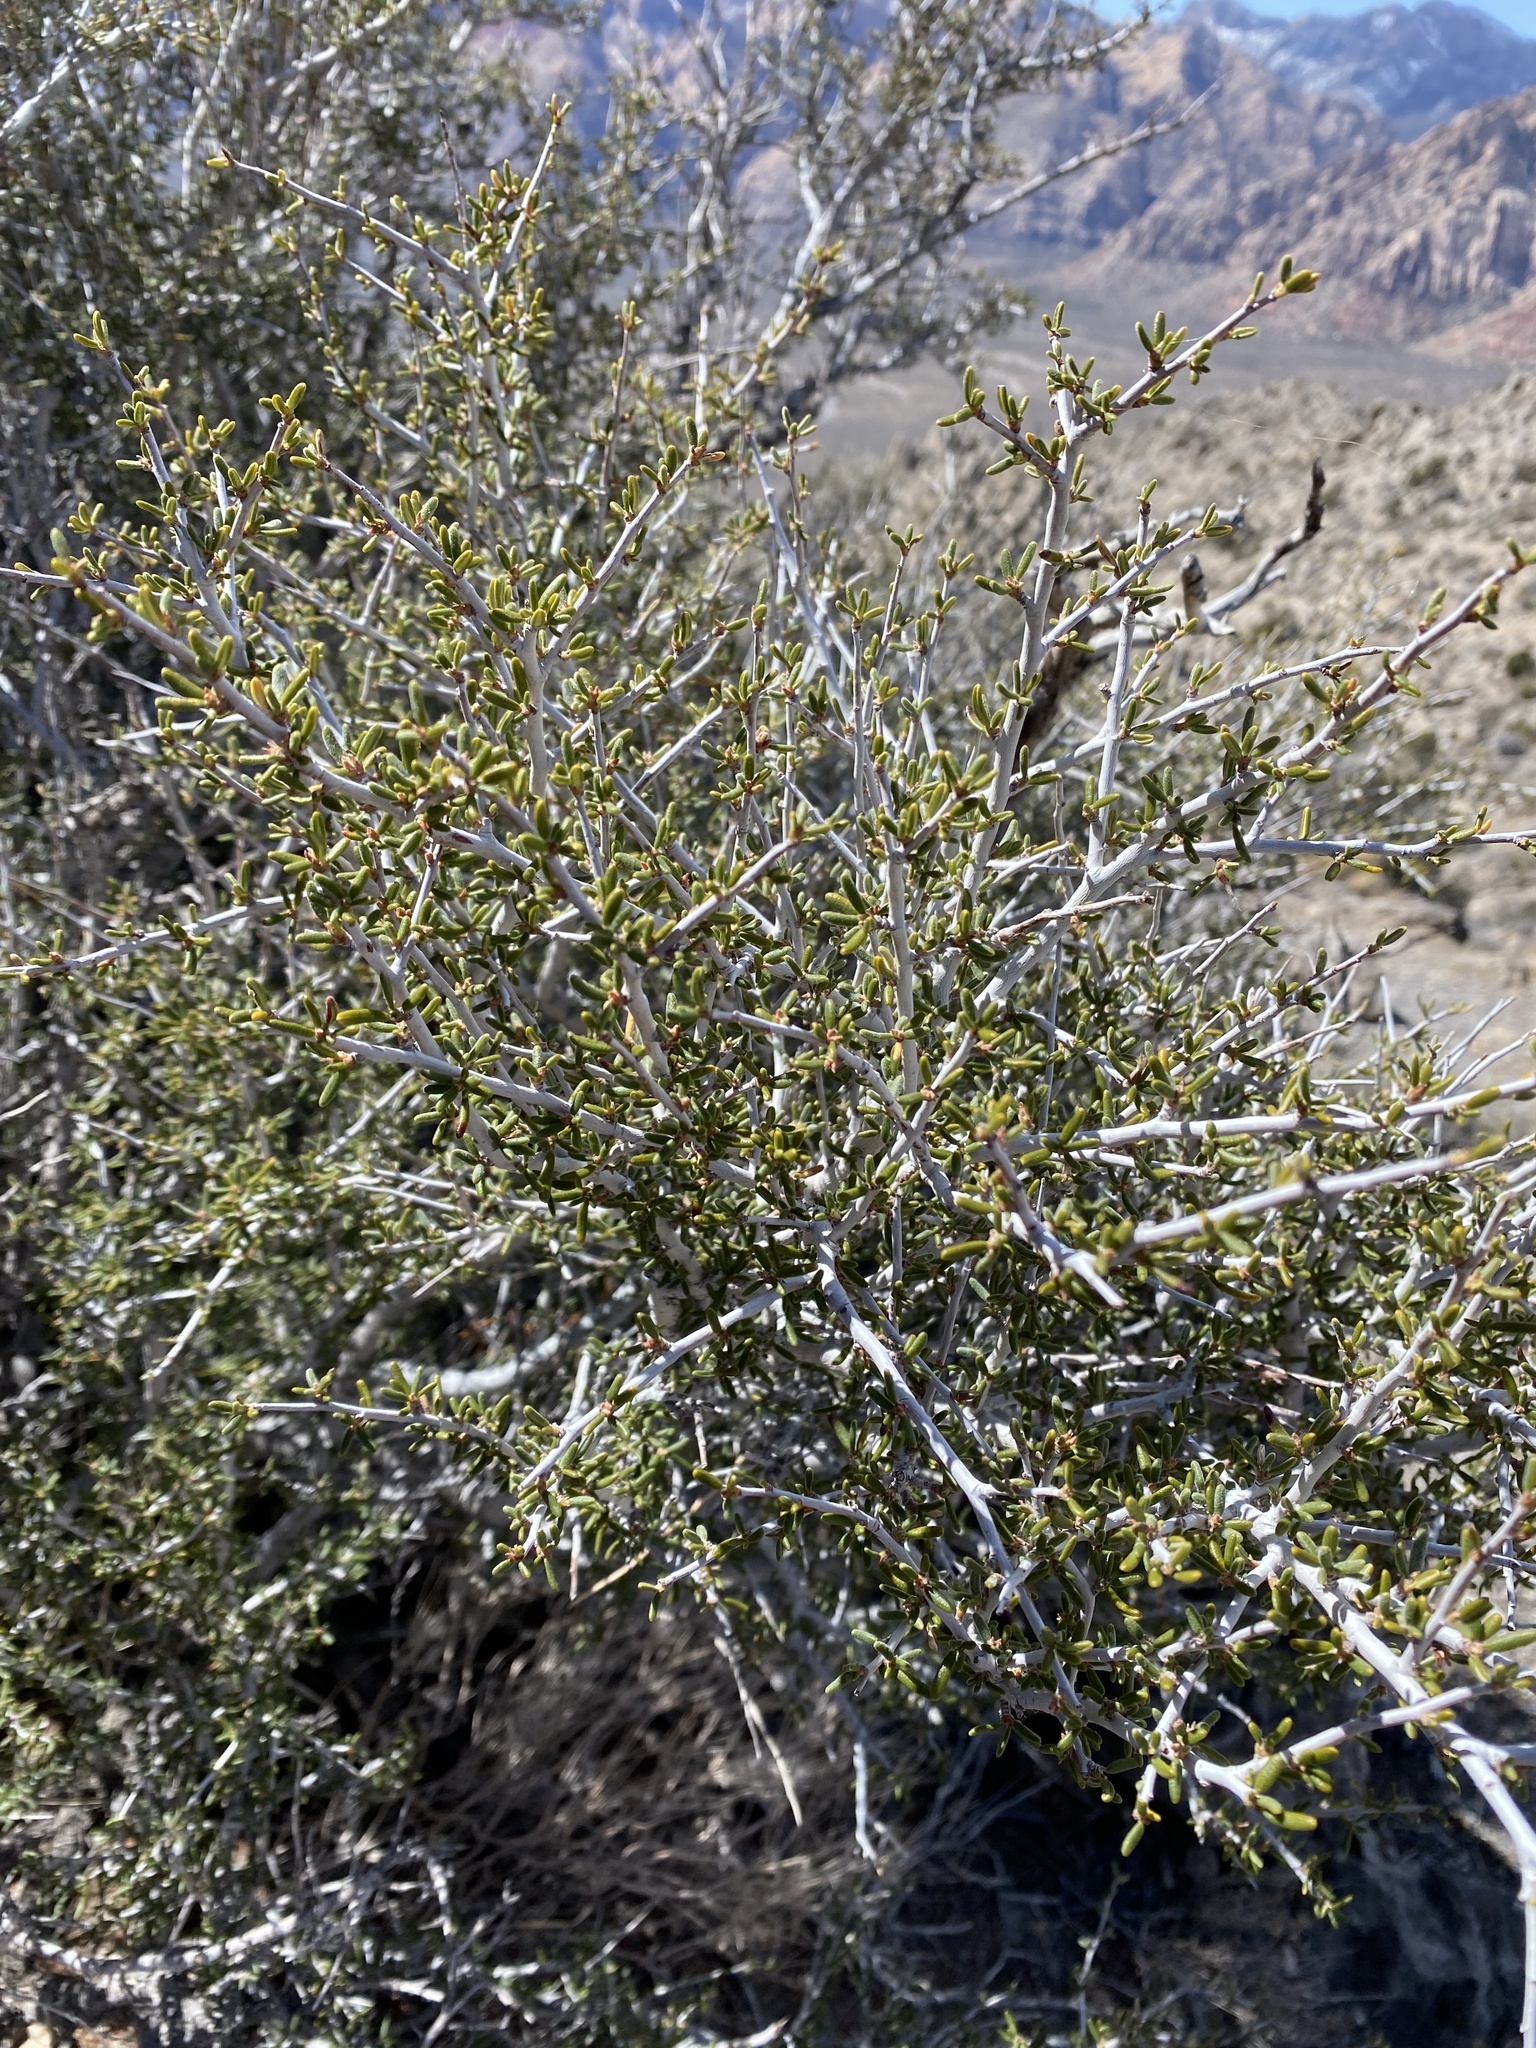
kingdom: Plantae
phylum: Tracheophyta
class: Magnoliopsida
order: Rosales
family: Rosaceae
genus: Cercocarpus
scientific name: Cercocarpus intricatus
